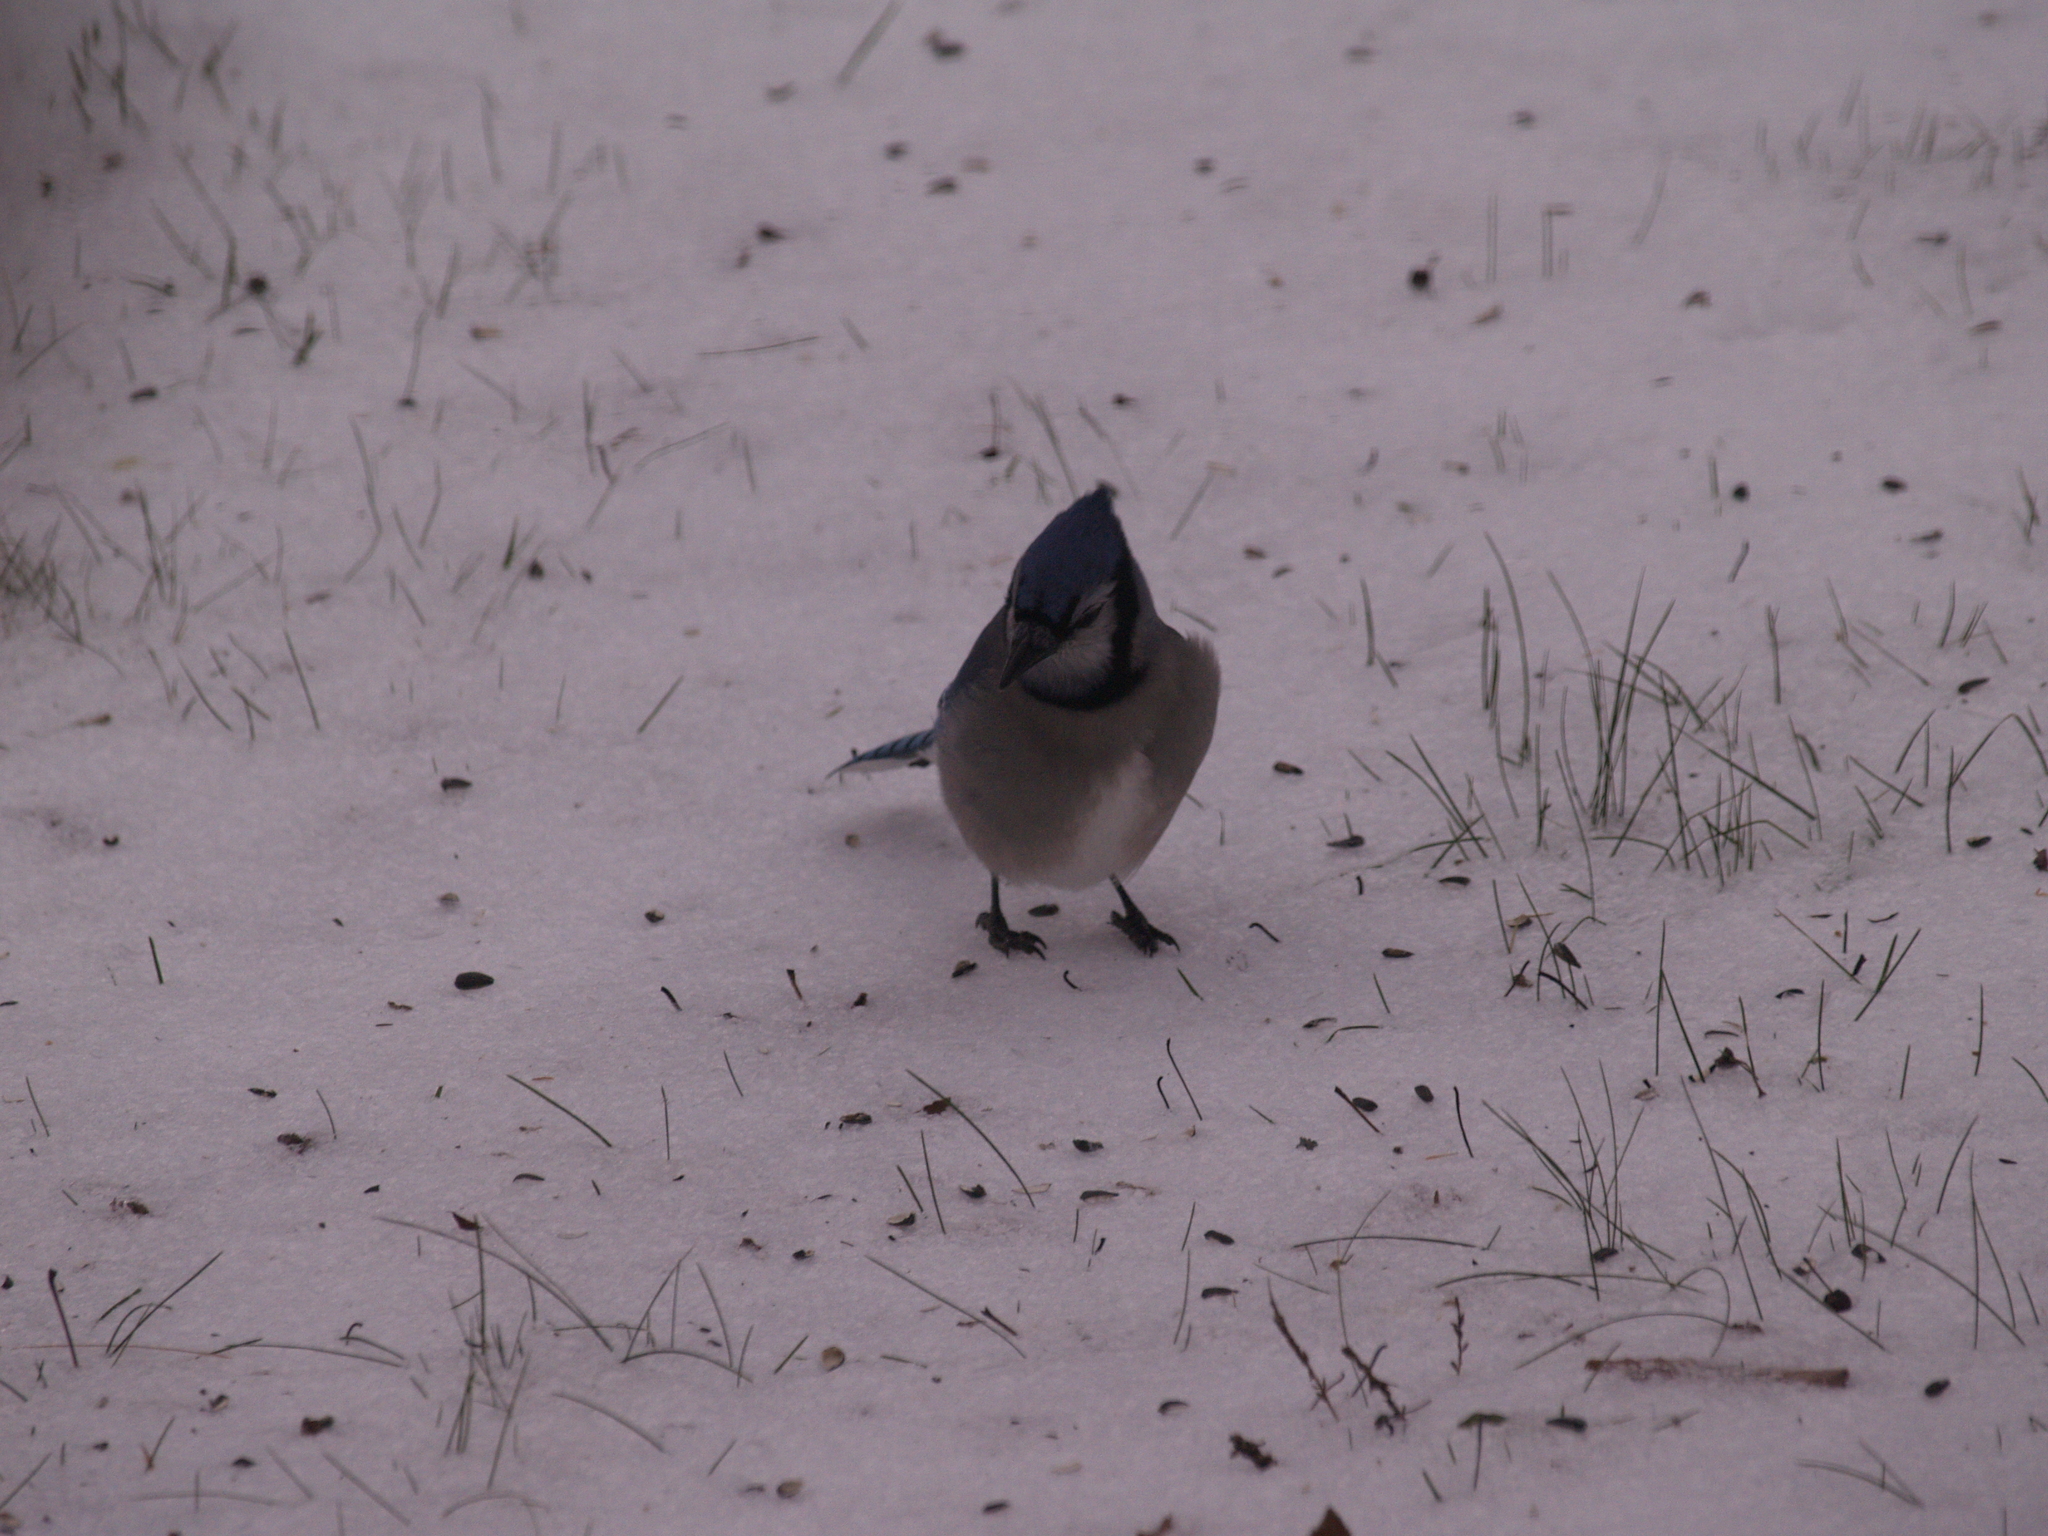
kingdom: Animalia
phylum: Chordata
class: Aves
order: Passeriformes
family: Corvidae
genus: Cyanocitta
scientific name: Cyanocitta cristata
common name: Blue jay
